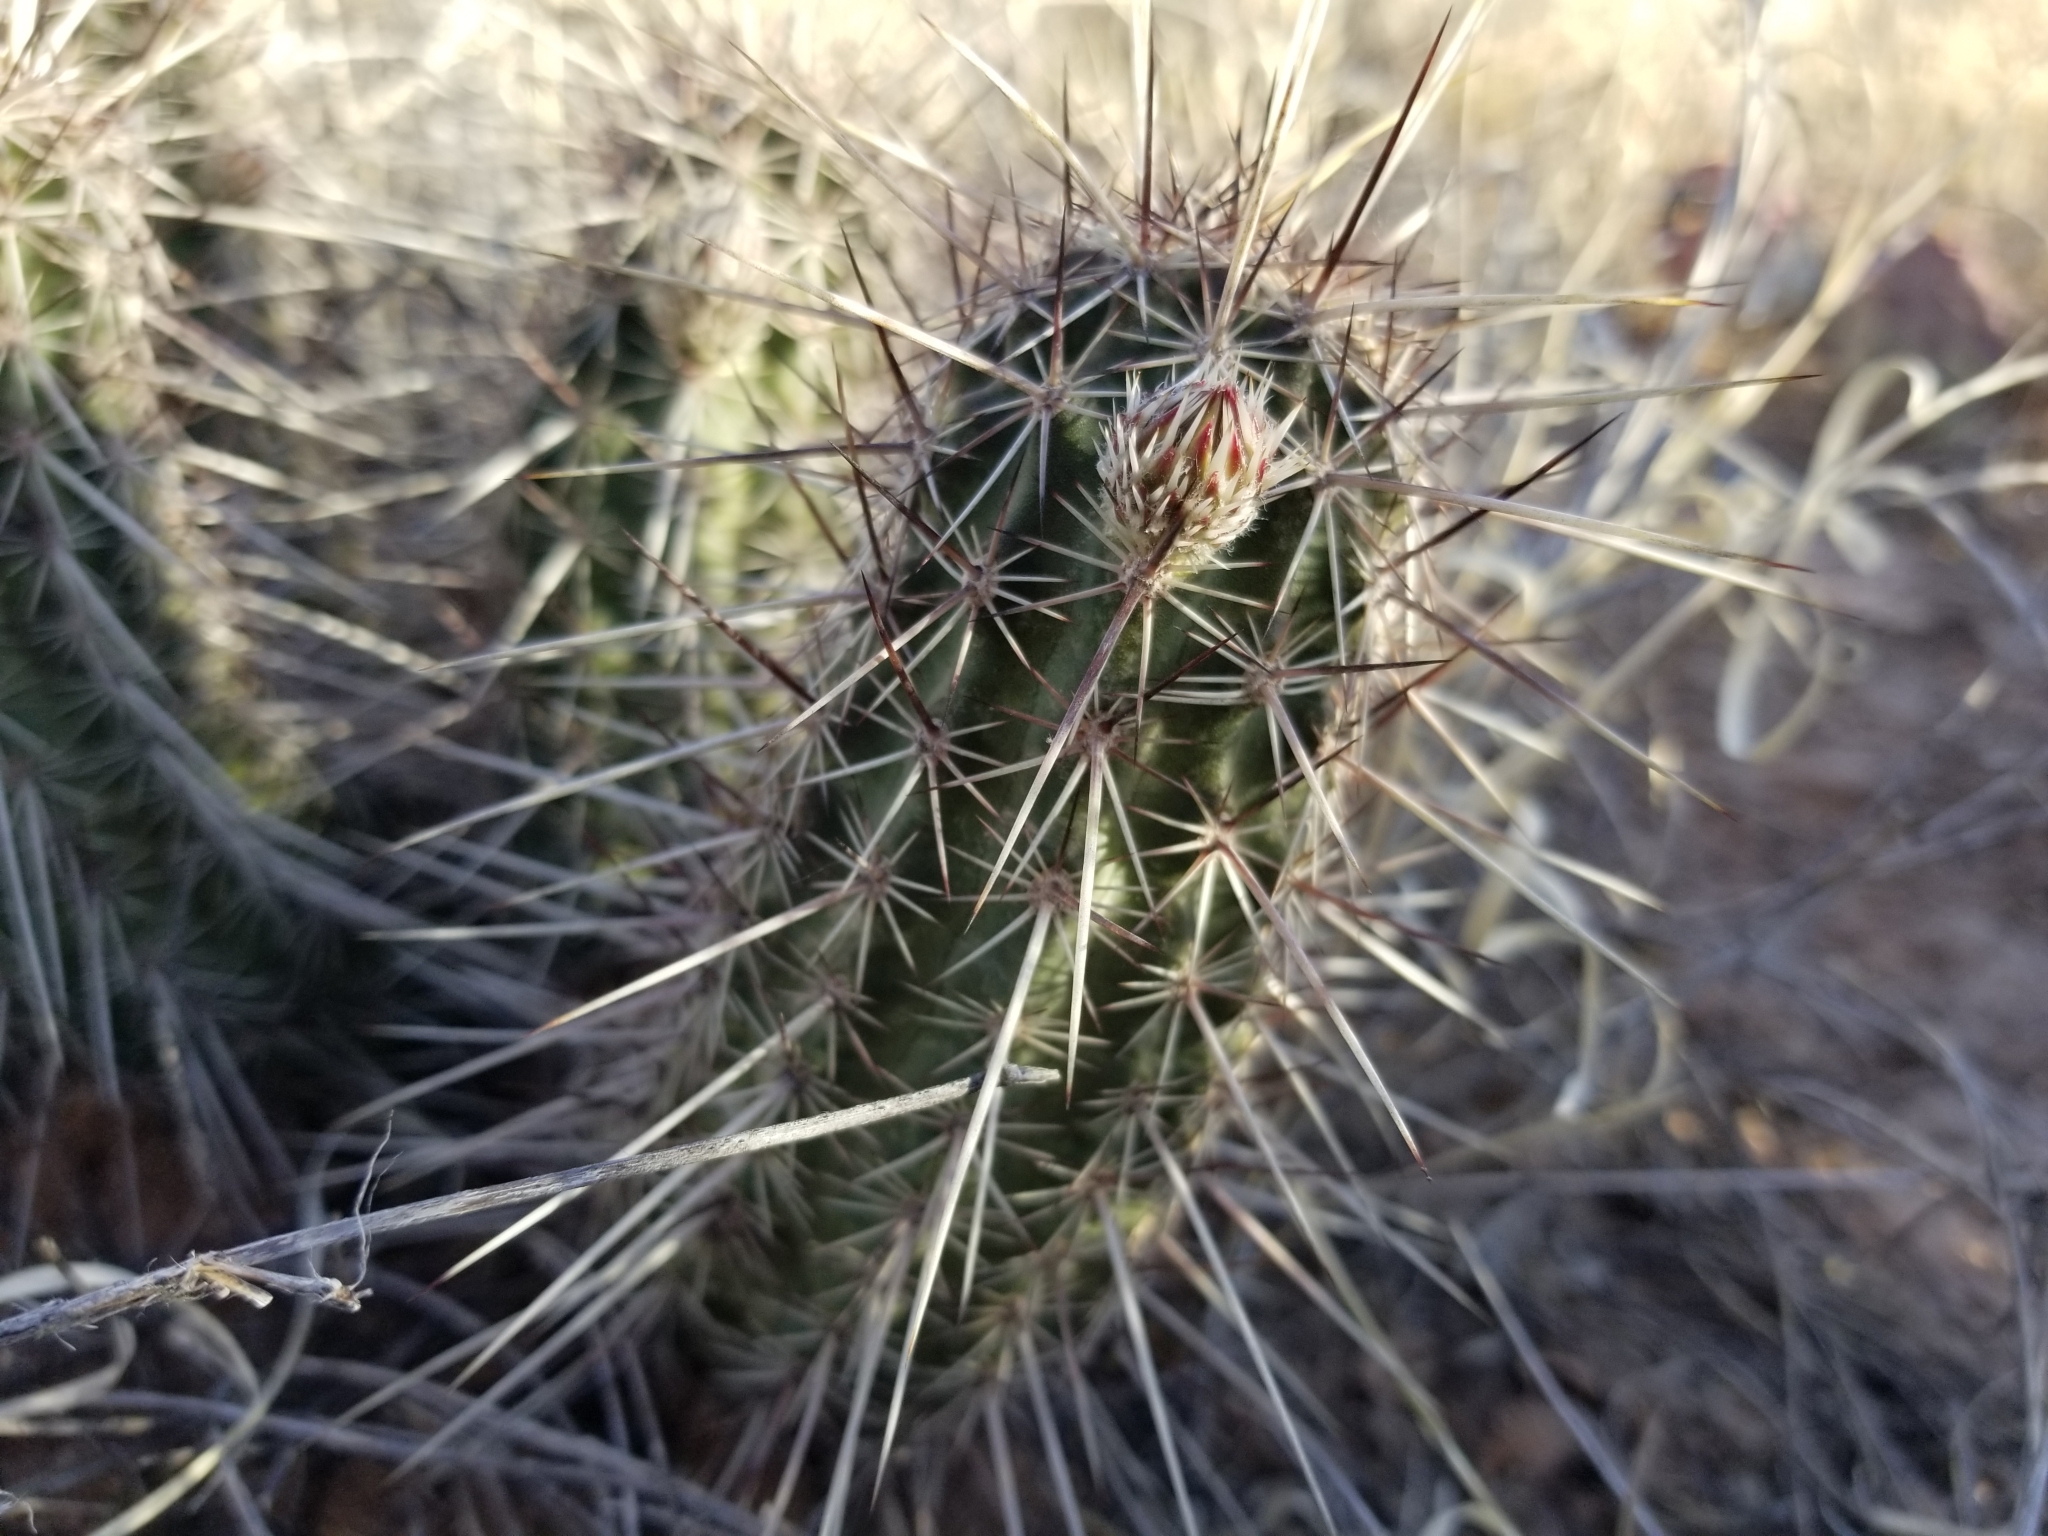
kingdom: Plantae
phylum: Tracheophyta
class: Magnoliopsida
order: Caryophyllales
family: Cactaceae
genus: Echinocereus
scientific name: Echinocereus fasciculatus
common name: Bundle hedgehog
